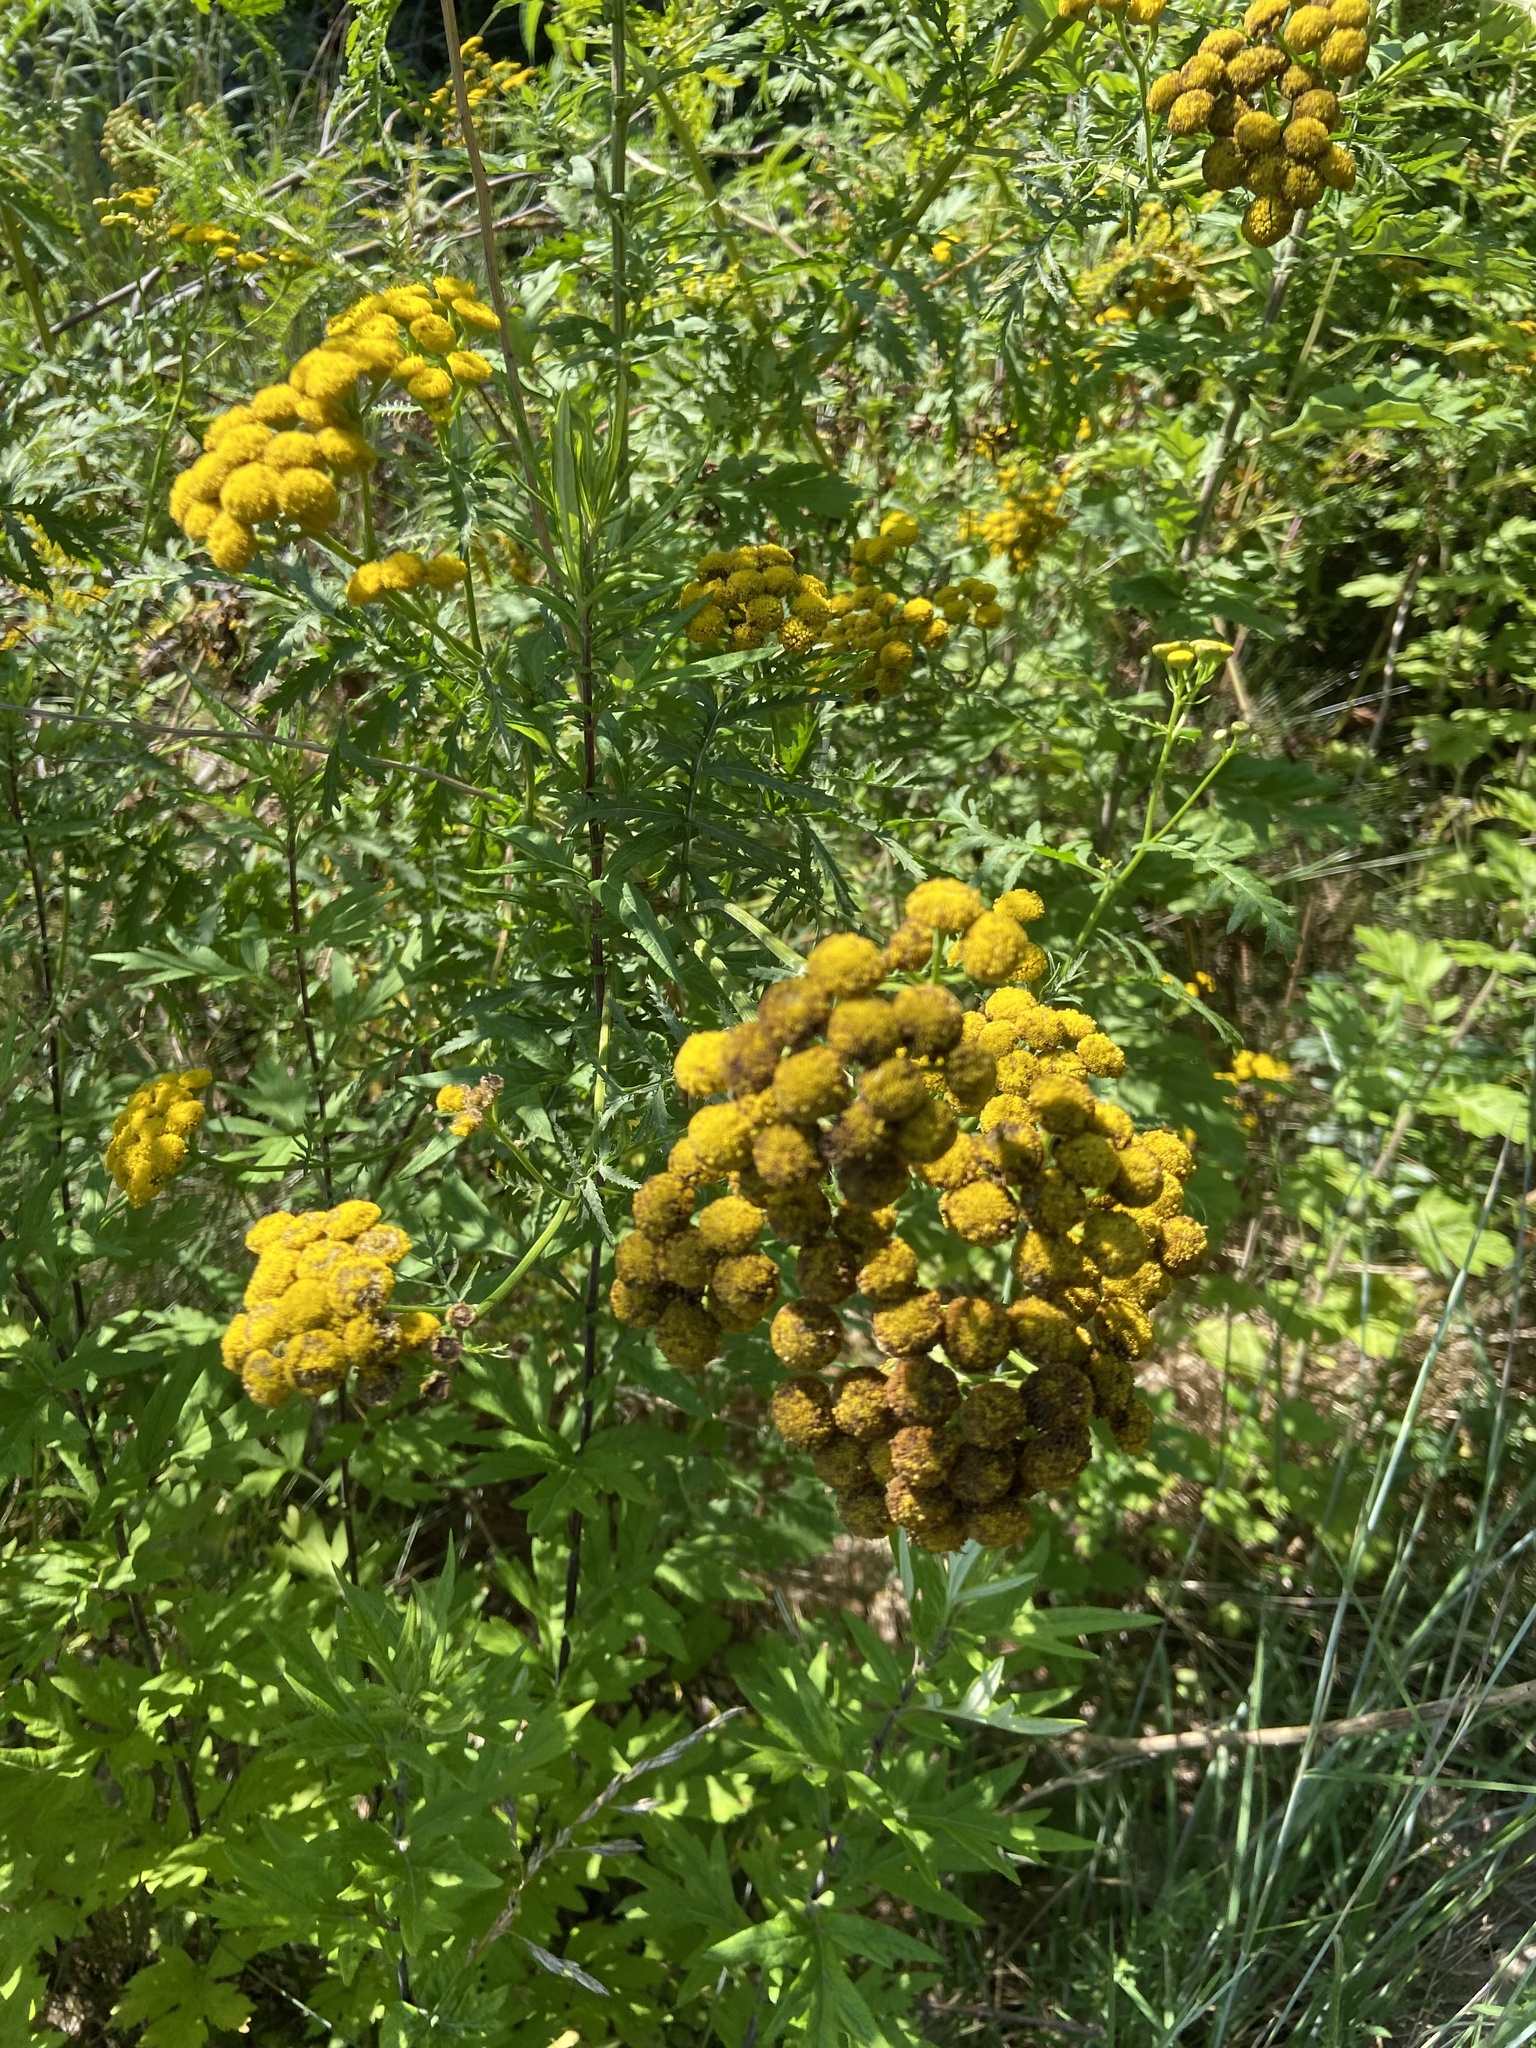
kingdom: Plantae
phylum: Tracheophyta
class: Magnoliopsida
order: Asterales
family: Asteraceae
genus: Tanacetum
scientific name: Tanacetum vulgare
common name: Common tansy
